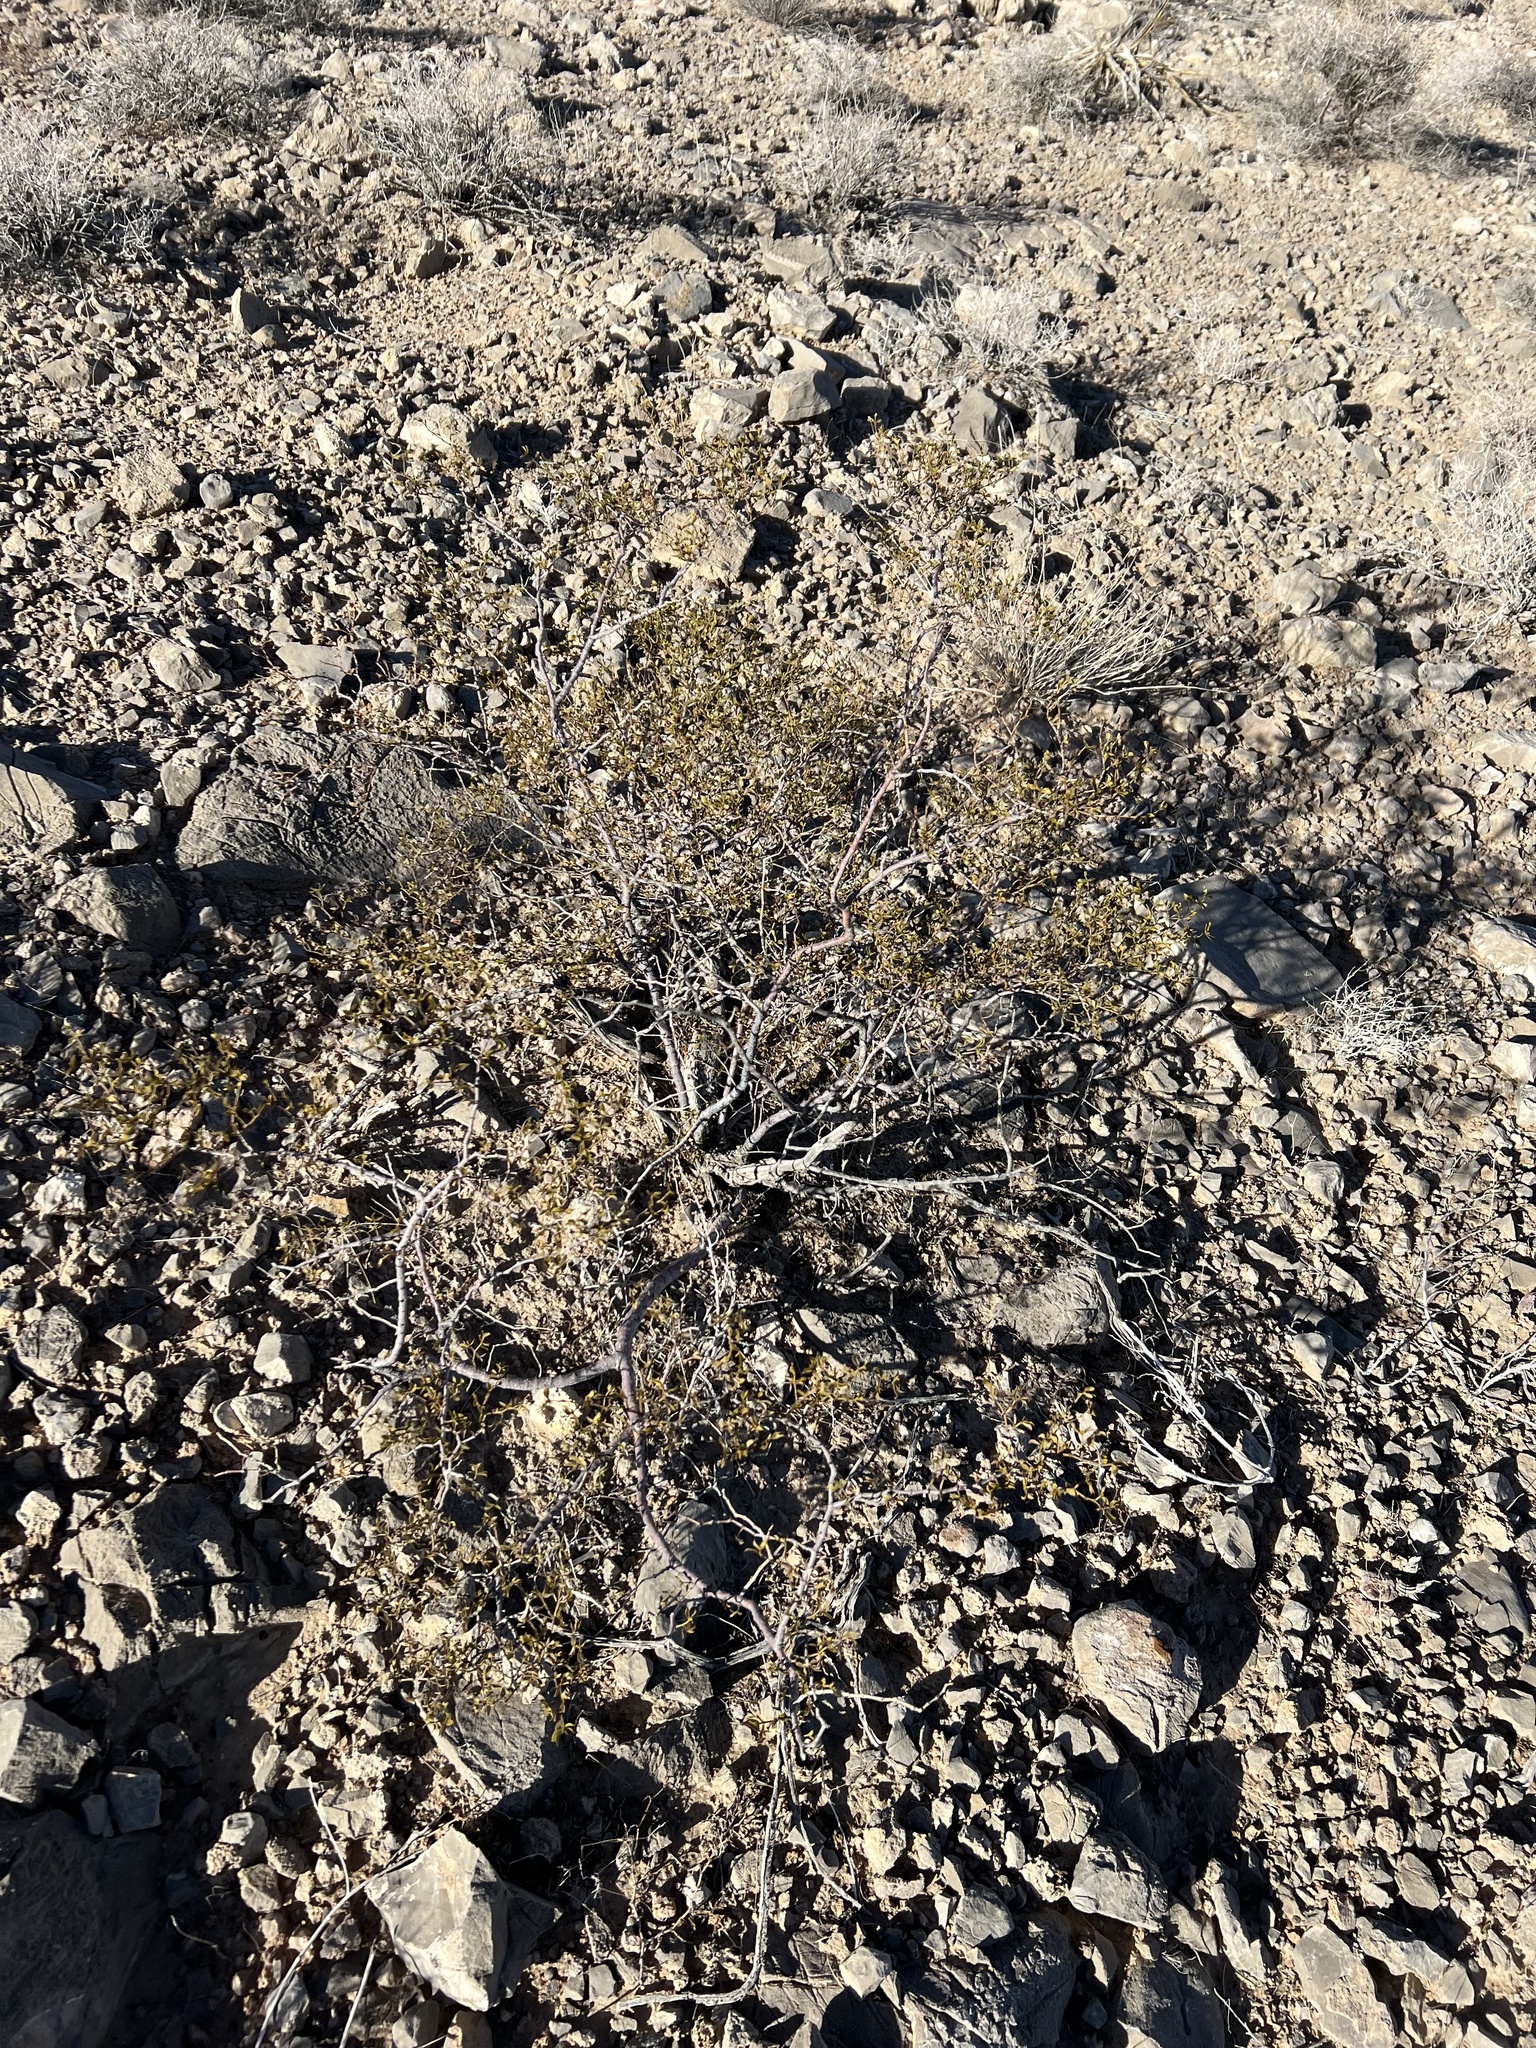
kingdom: Plantae
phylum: Tracheophyta
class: Magnoliopsida
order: Zygophyllales
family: Zygophyllaceae
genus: Larrea
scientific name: Larrea tridentata
